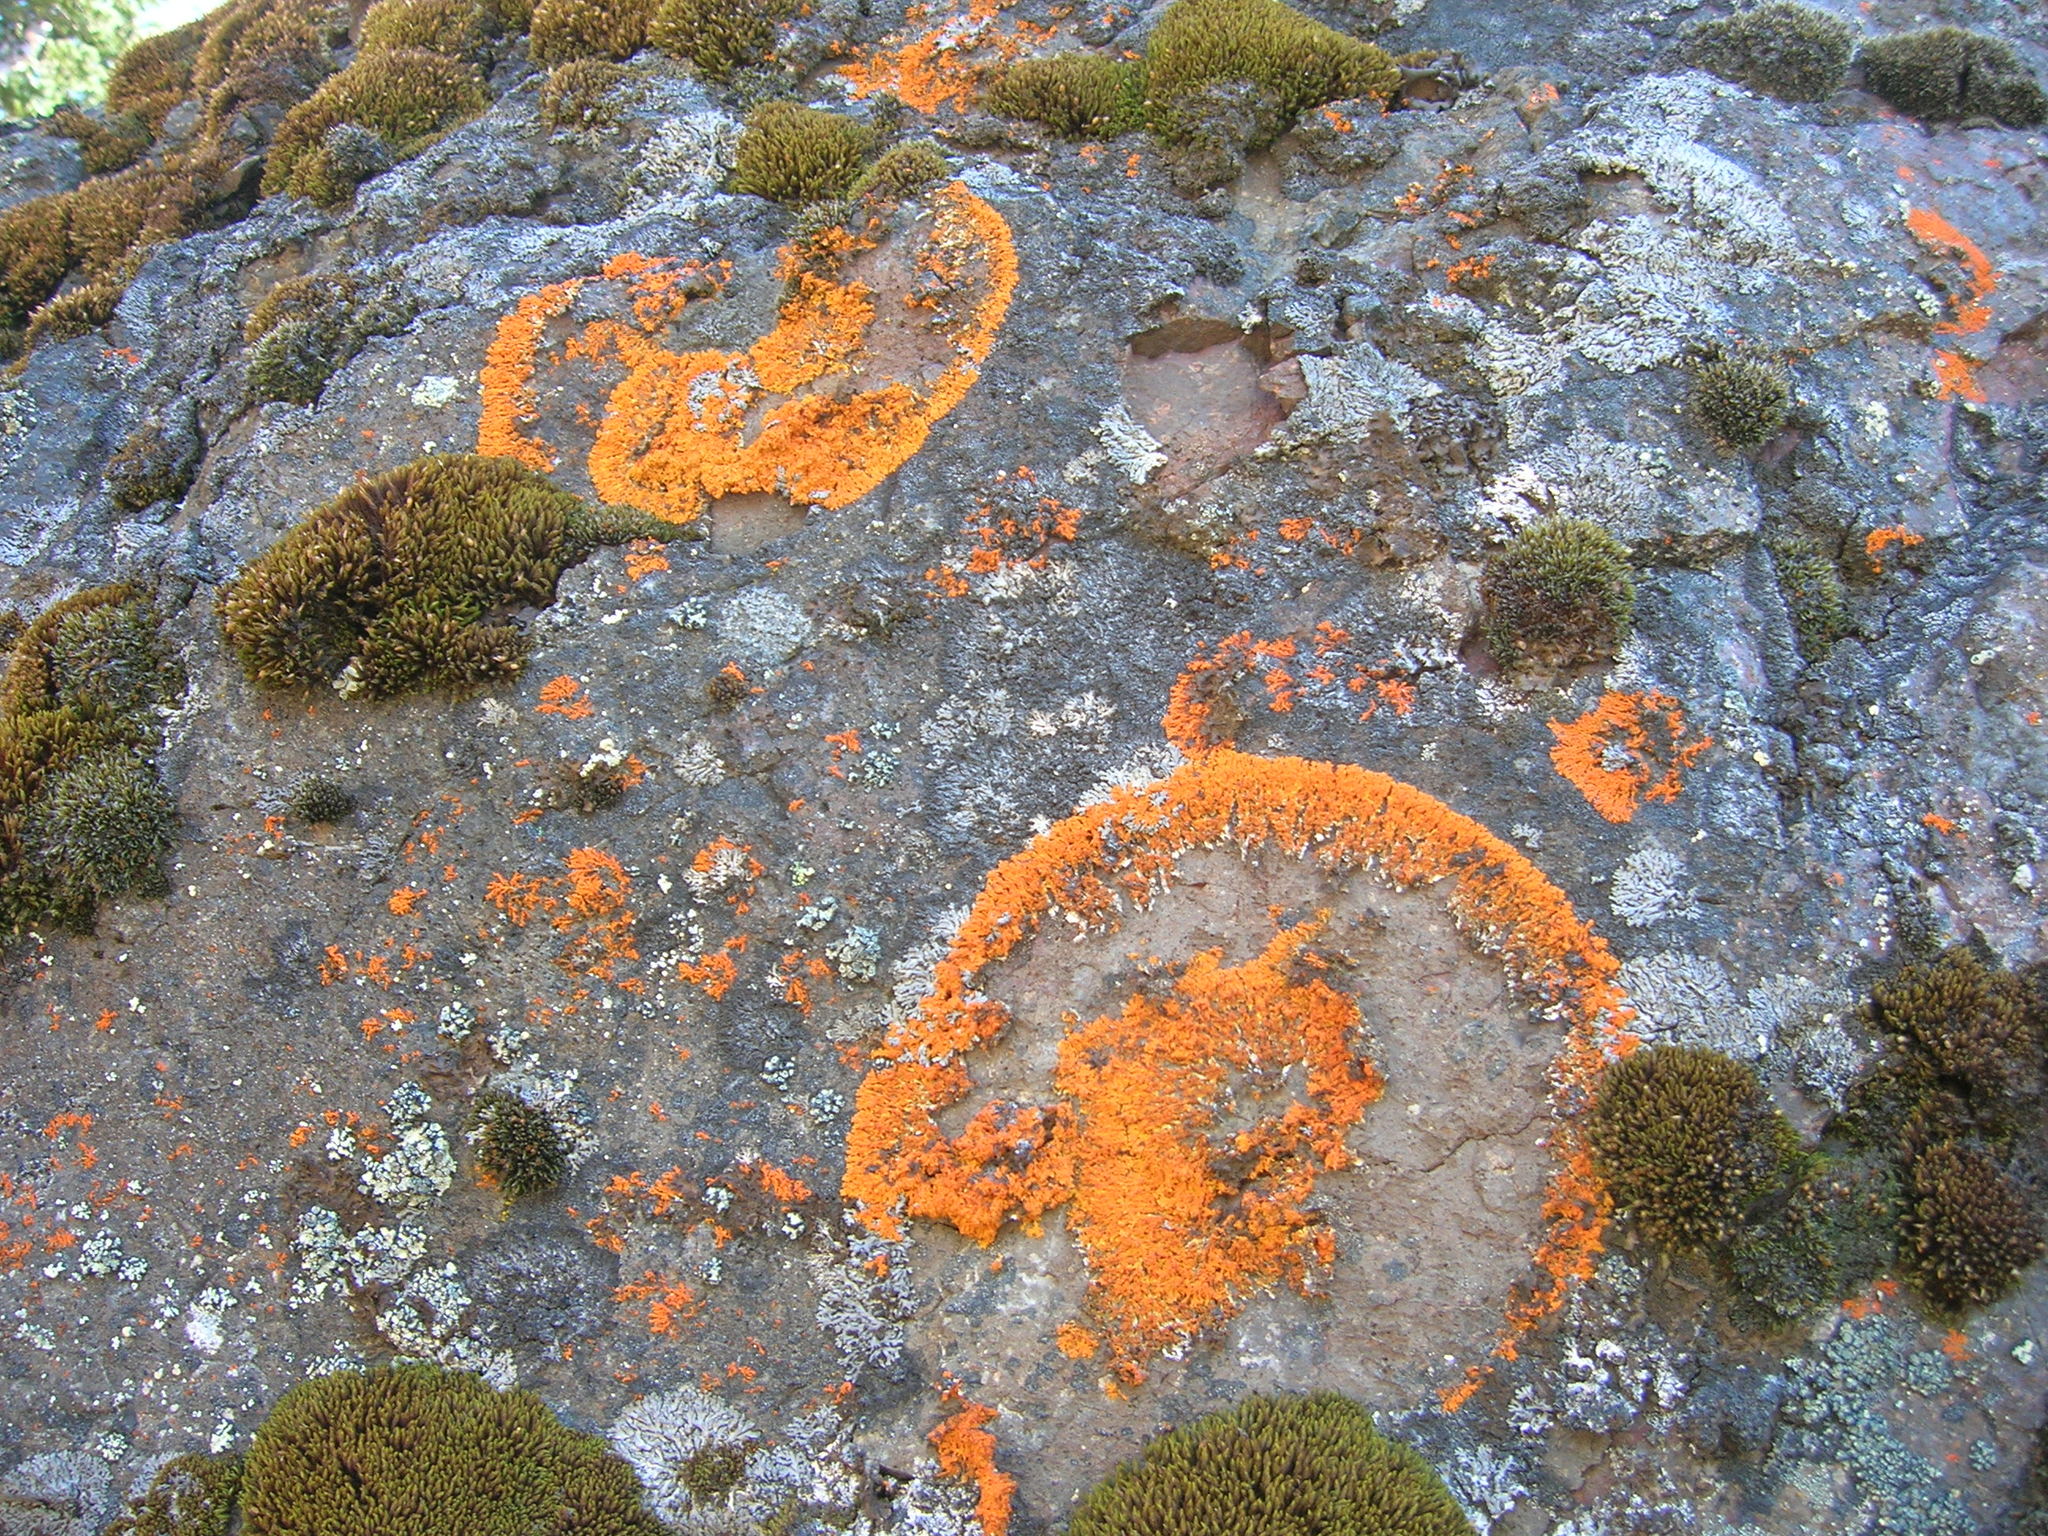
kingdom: Fungi
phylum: Ascomycota
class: Lecanoromycetes
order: Teloschistales
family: Teloschistaceae
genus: Xanthoria
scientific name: Xanthoria elegans
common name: Elegant sunburst lichen
